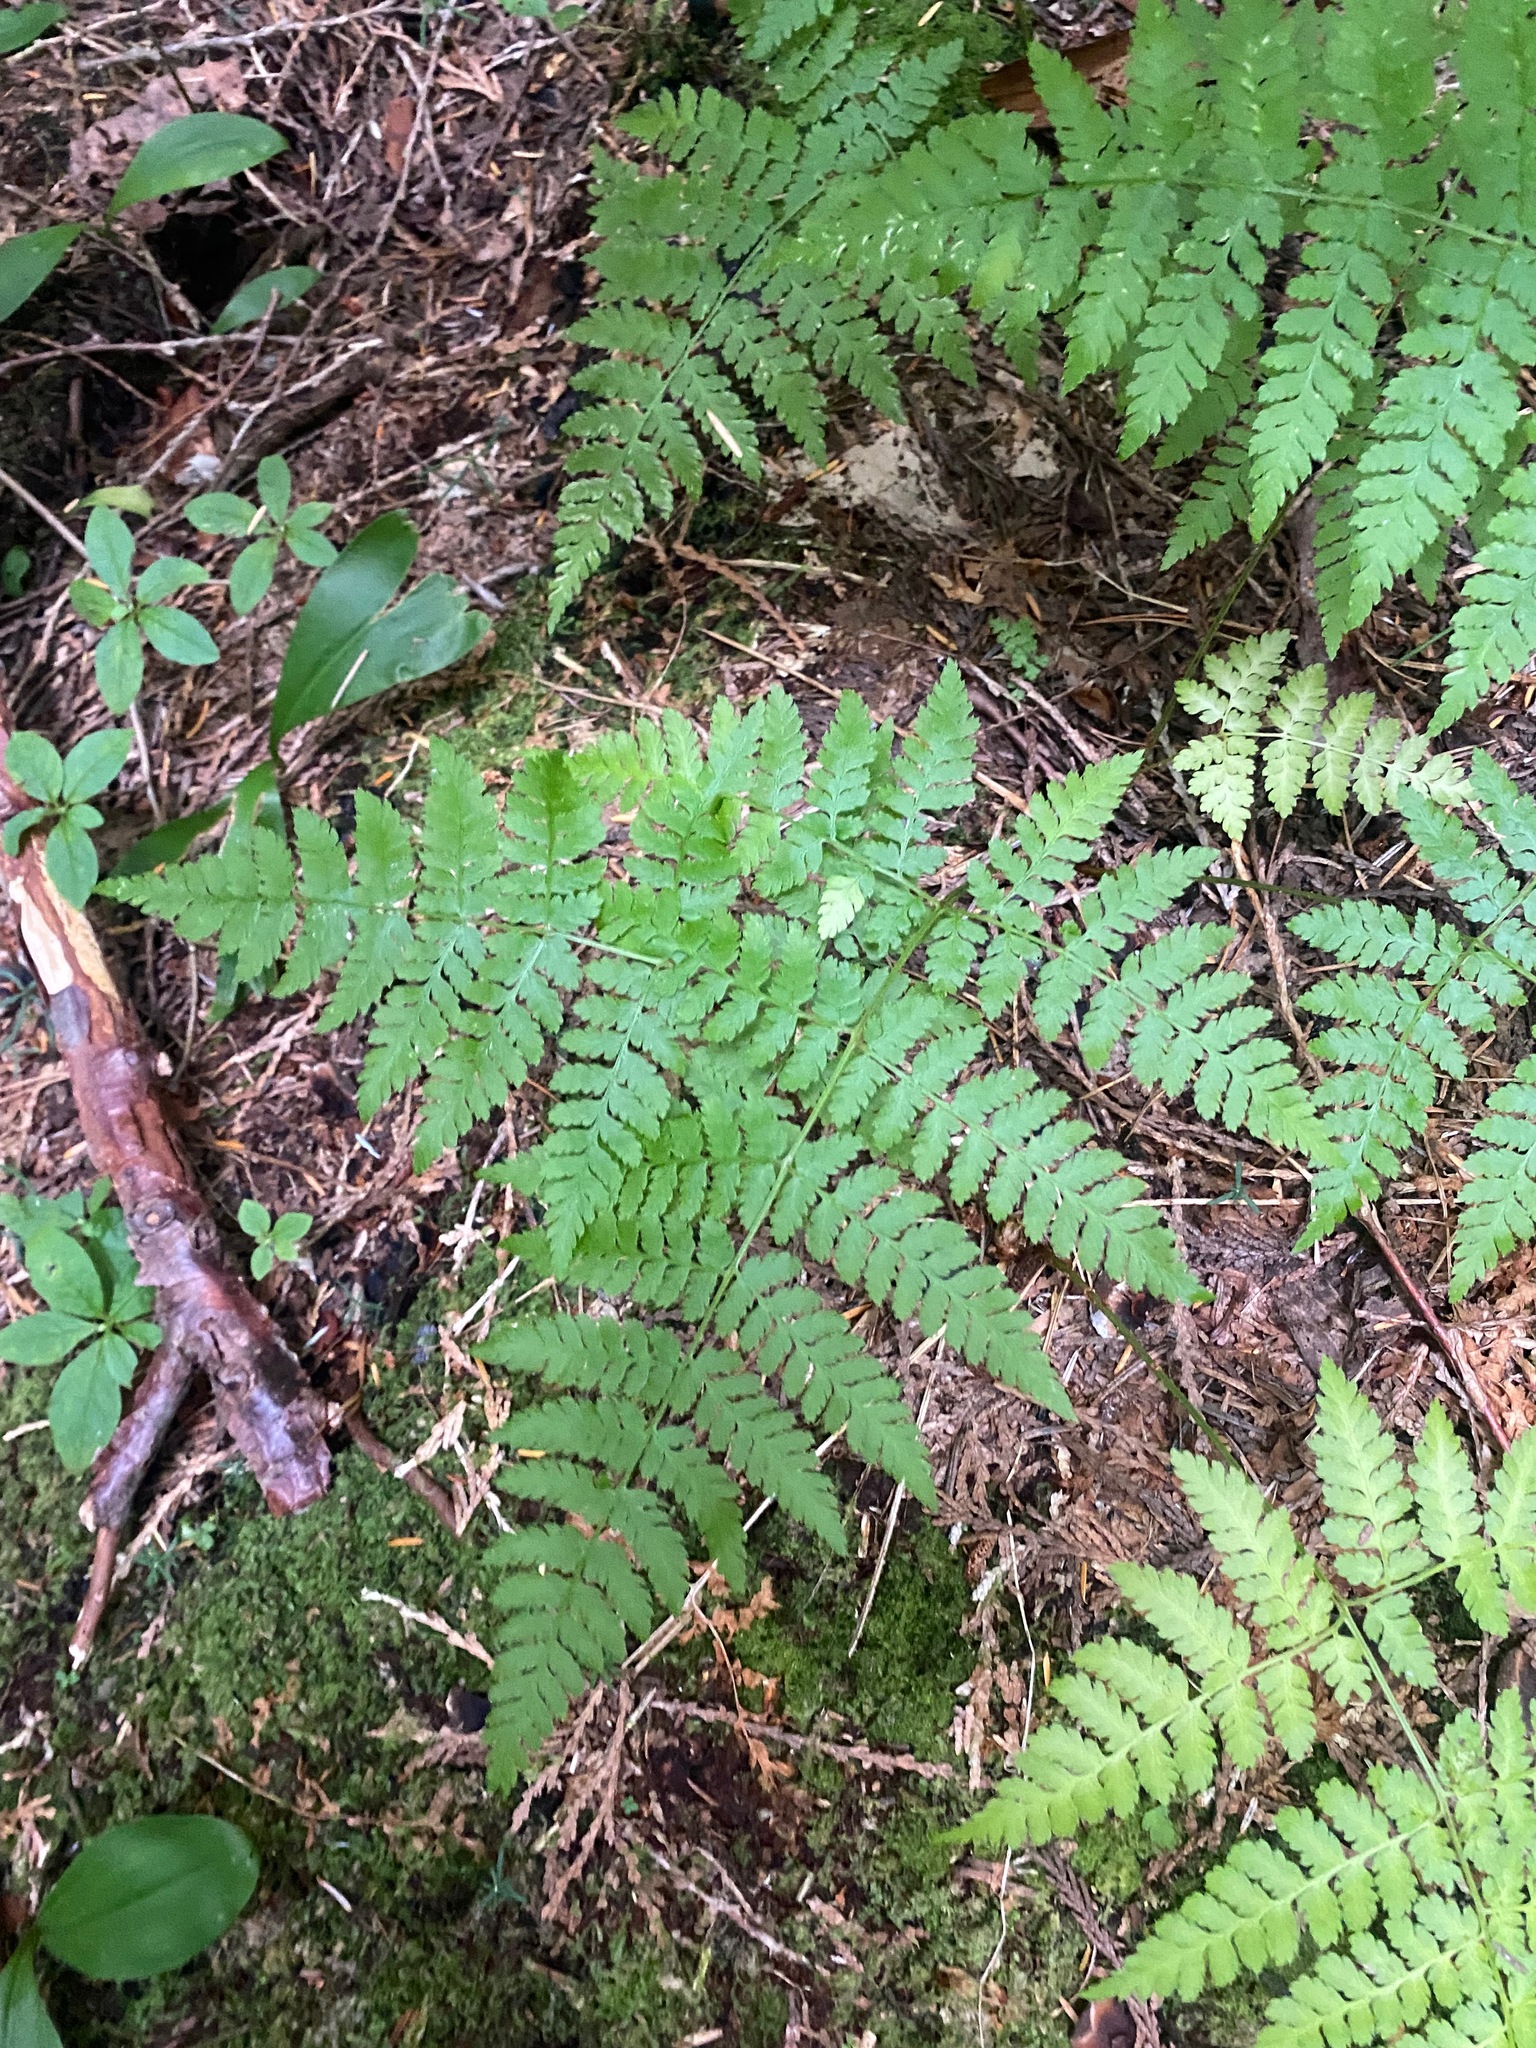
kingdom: Plantae
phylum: Tracheophyta
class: Polypodiopsida
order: Polypodiales
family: Dryopteridaceae
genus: Dryopteris
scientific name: Dryopteris expansa
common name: Northern buckler fern
